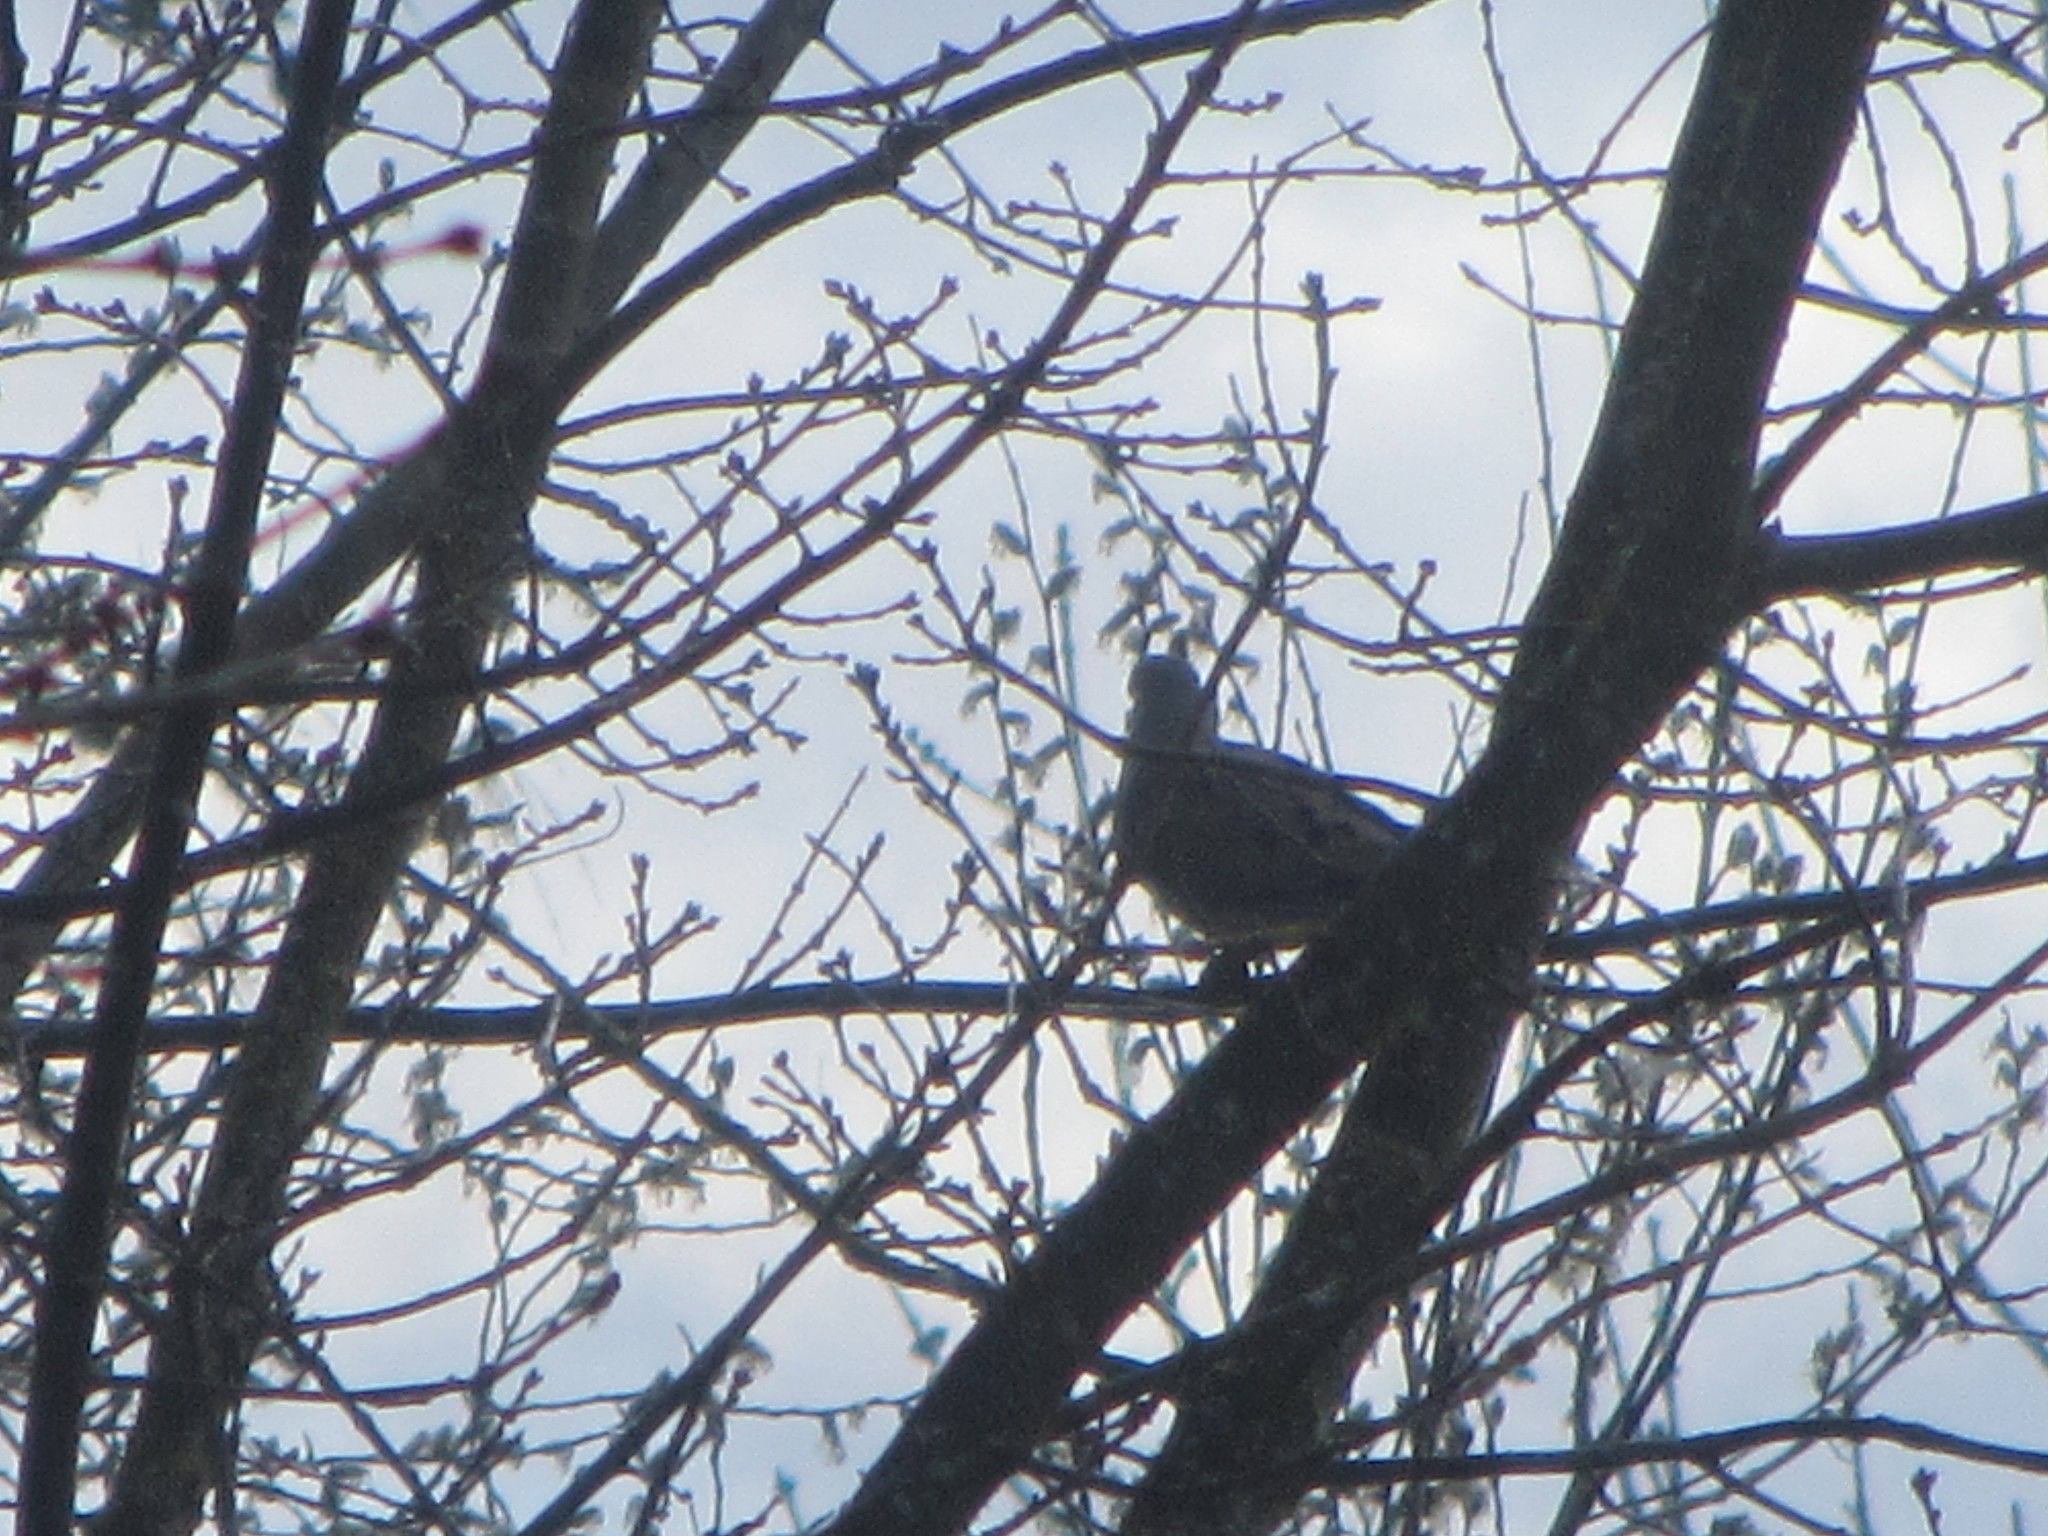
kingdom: Animalia
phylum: Chordata
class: Aves
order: Columbiformes
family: Columbidae
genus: Zenaida
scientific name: Zenaida macroura
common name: Mourning dove
